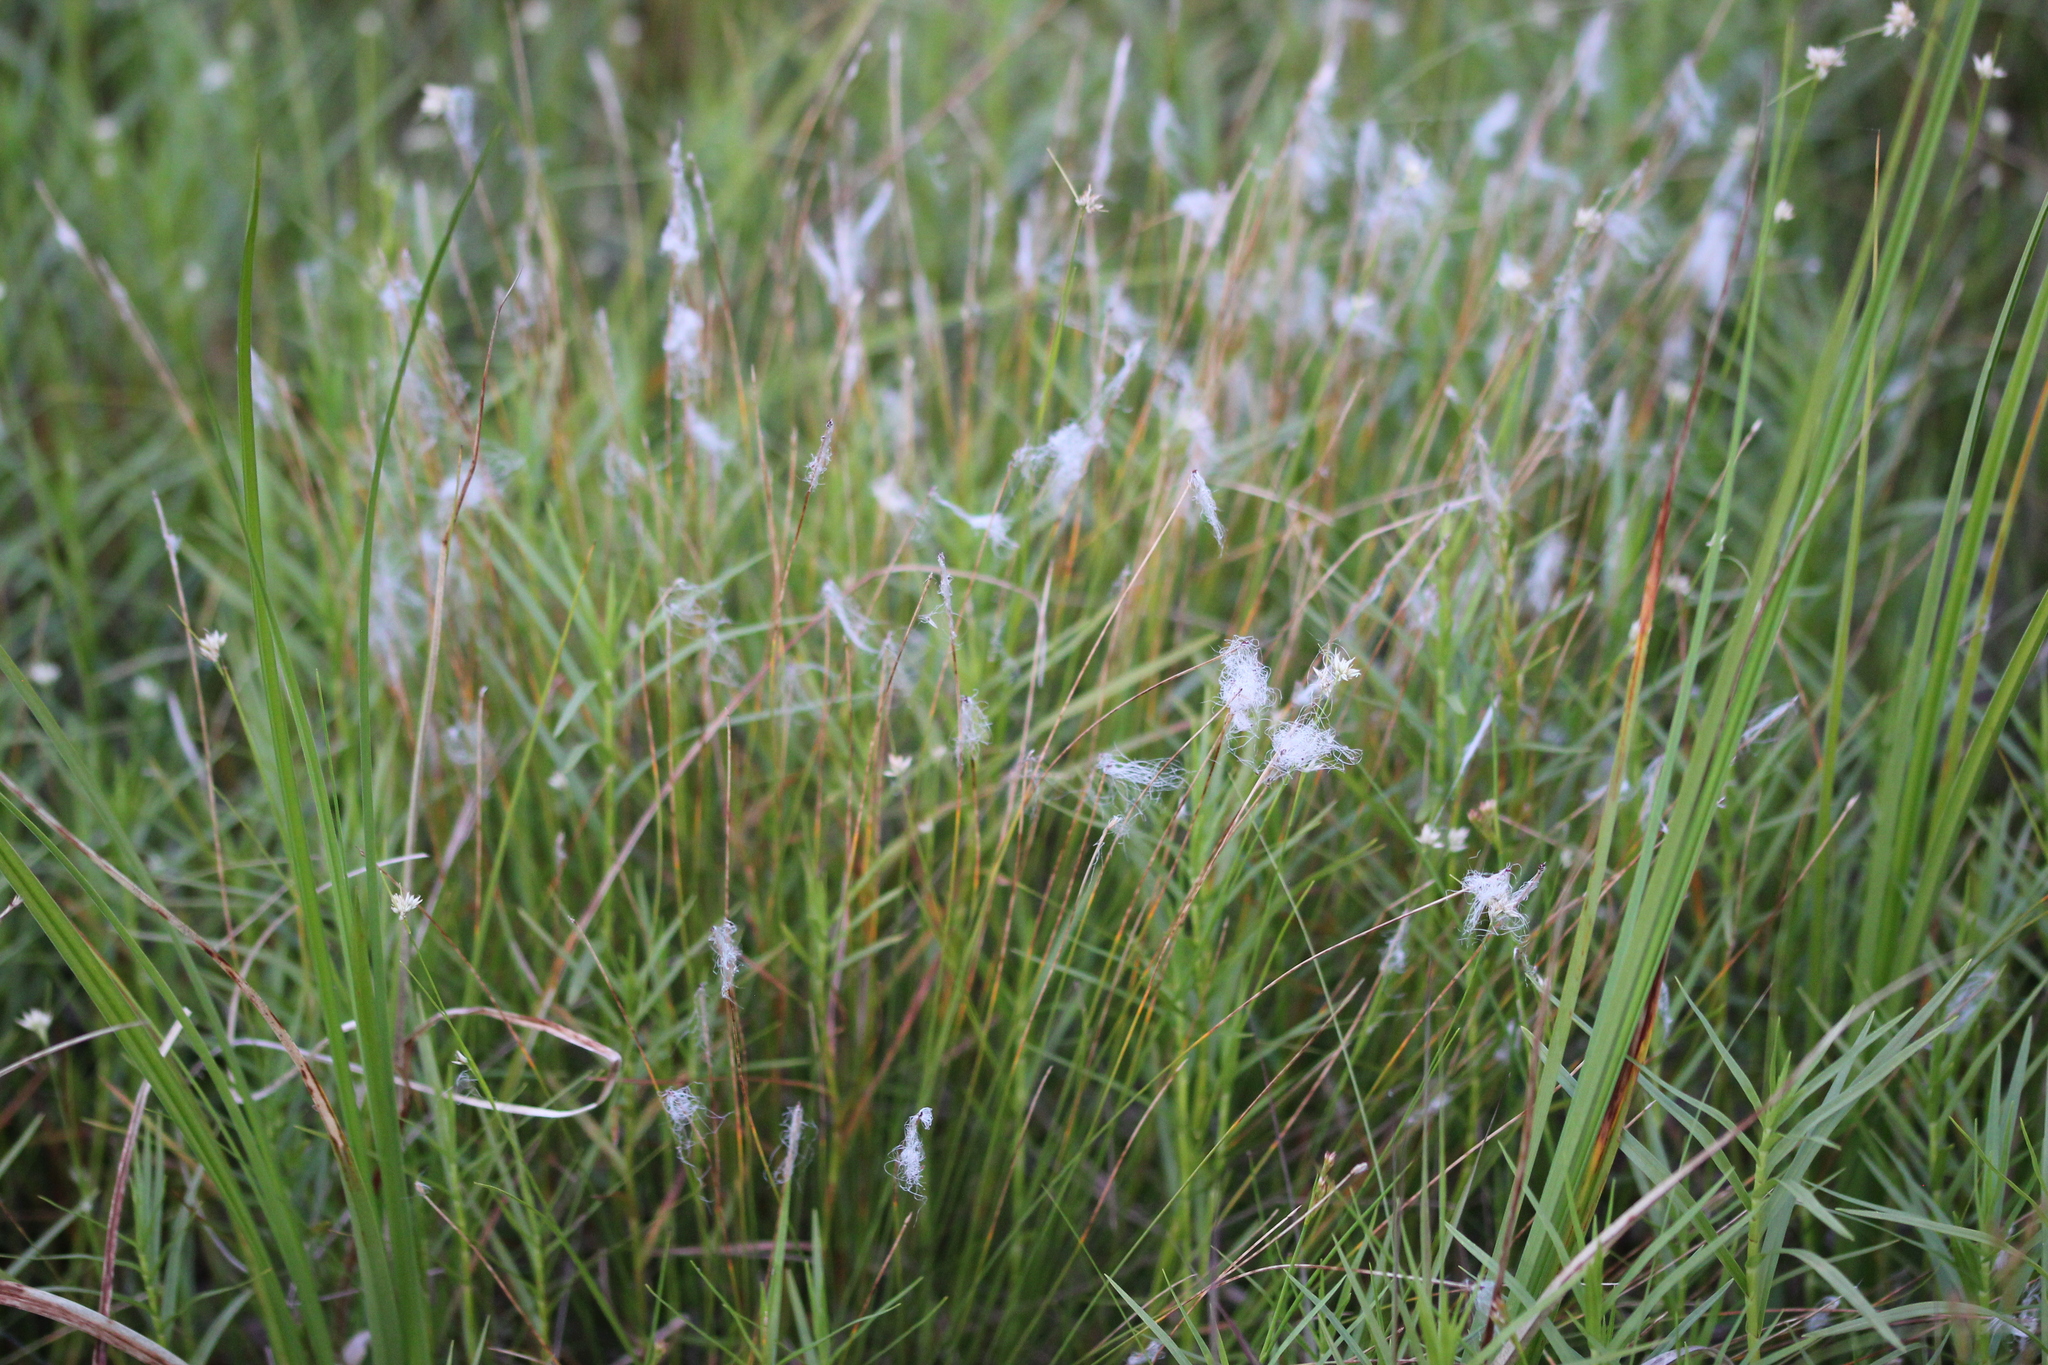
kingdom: Plantae
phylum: Tracheophyta
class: Liliopsida
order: Poales
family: Cyperaceae
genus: Trichophorum
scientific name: Trichophorum alpinum
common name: Alpine bulrush
